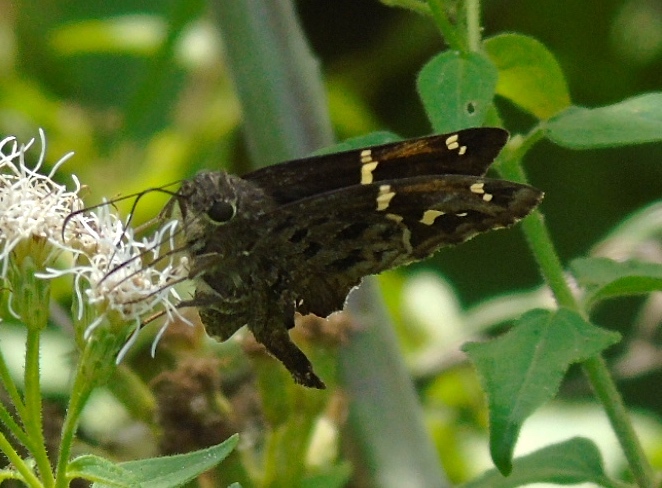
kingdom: Animalia
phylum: Arthropoda
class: Insecta
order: Lepidoptera
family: Hesperiidae
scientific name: Hesperiidae
